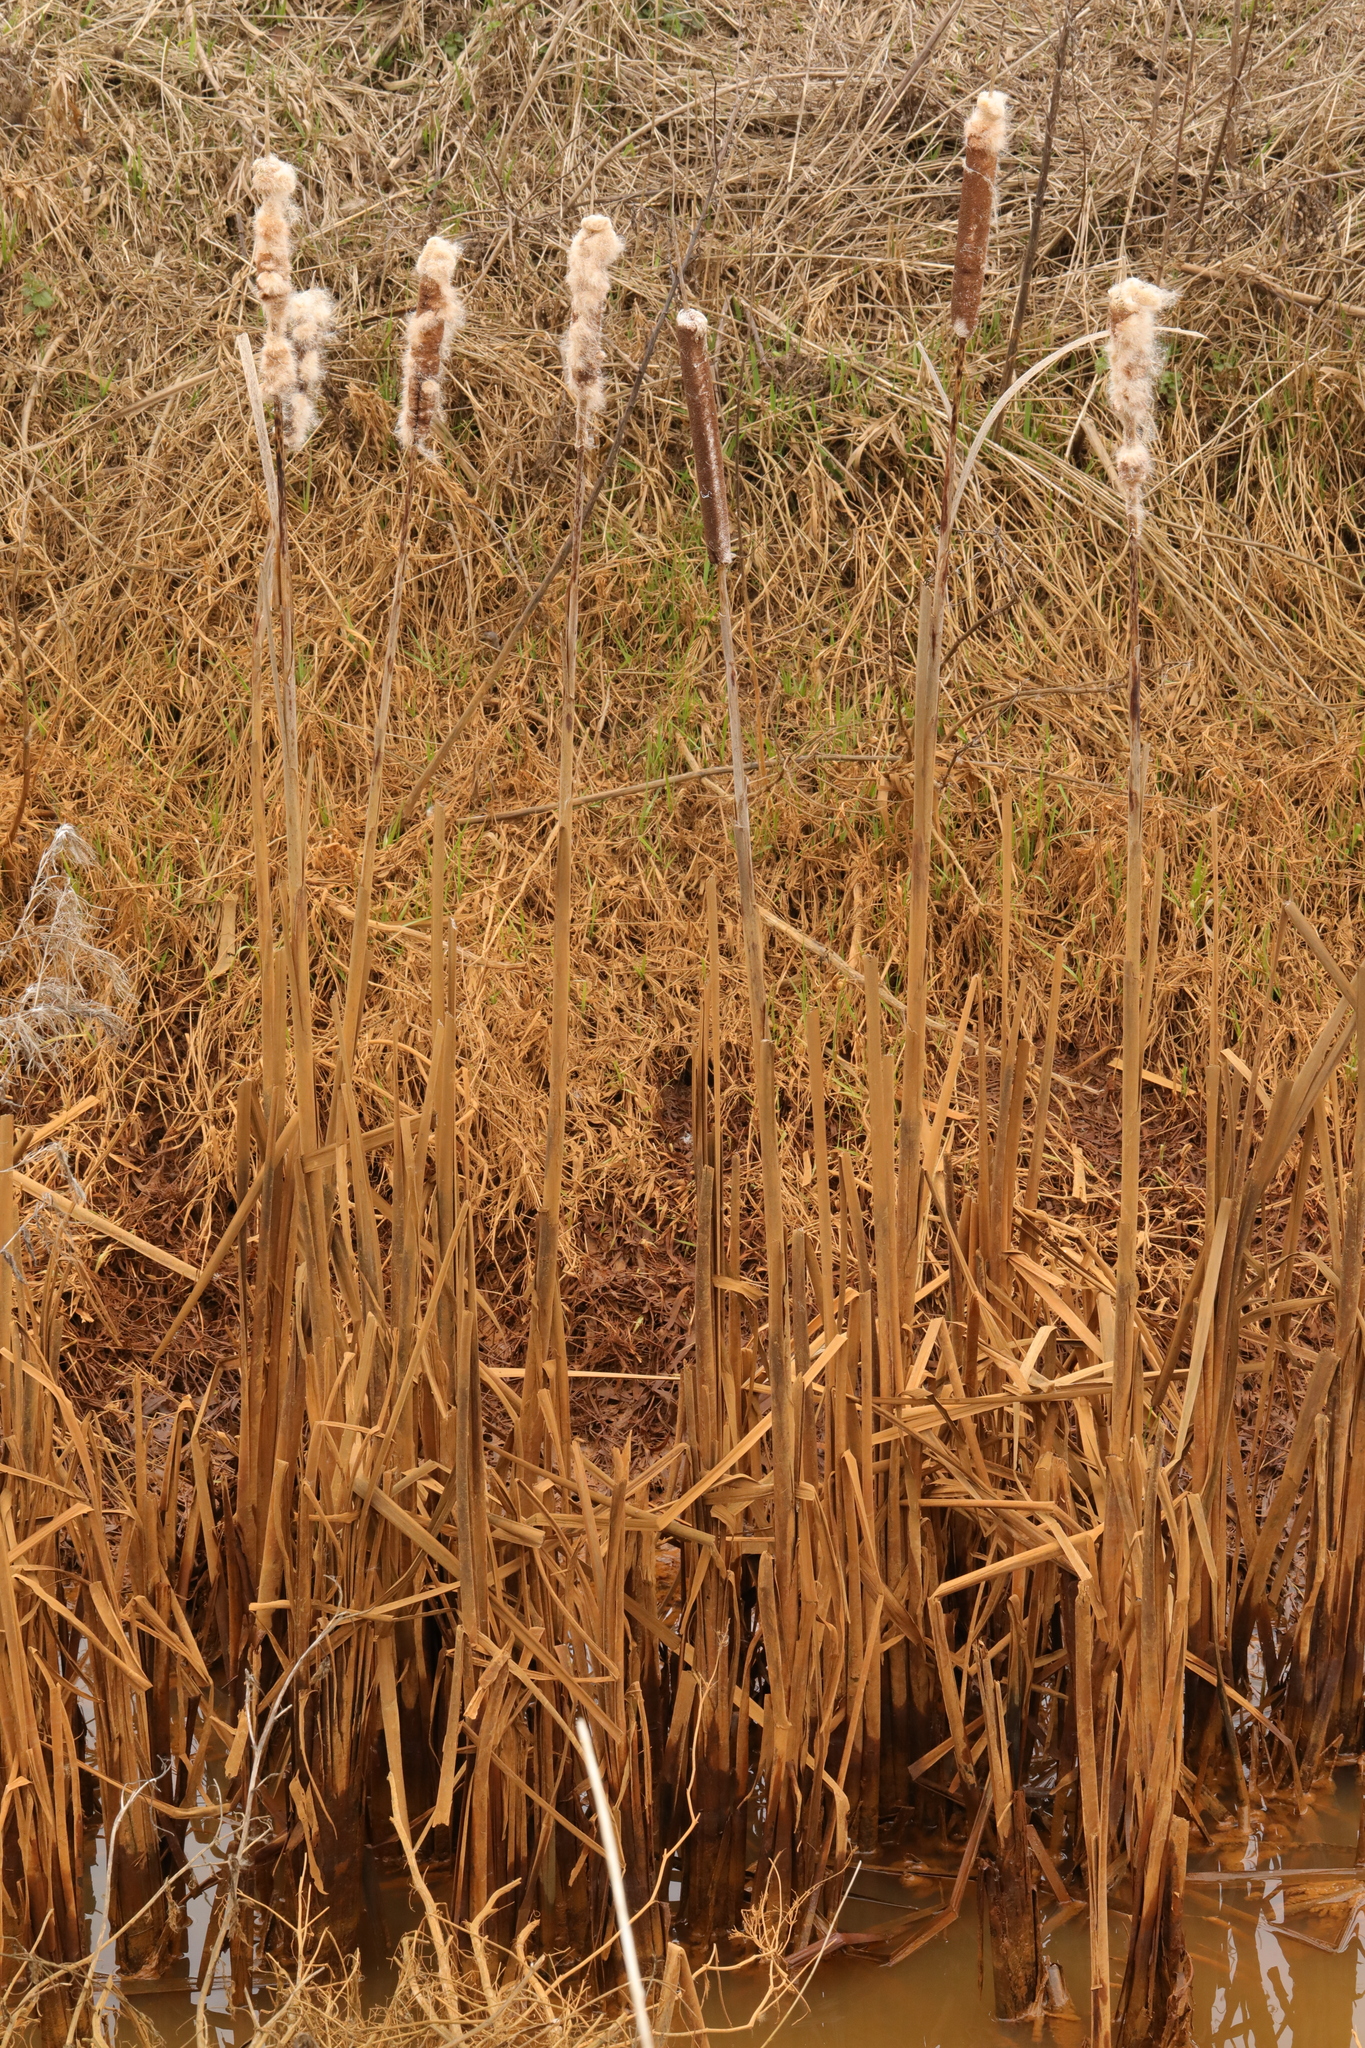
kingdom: Plantae
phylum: Tracheophyta
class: Liliopsida
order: Poales
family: Typhaceae
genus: Typha
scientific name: Typha latifolia
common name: Broadleaf cattail
